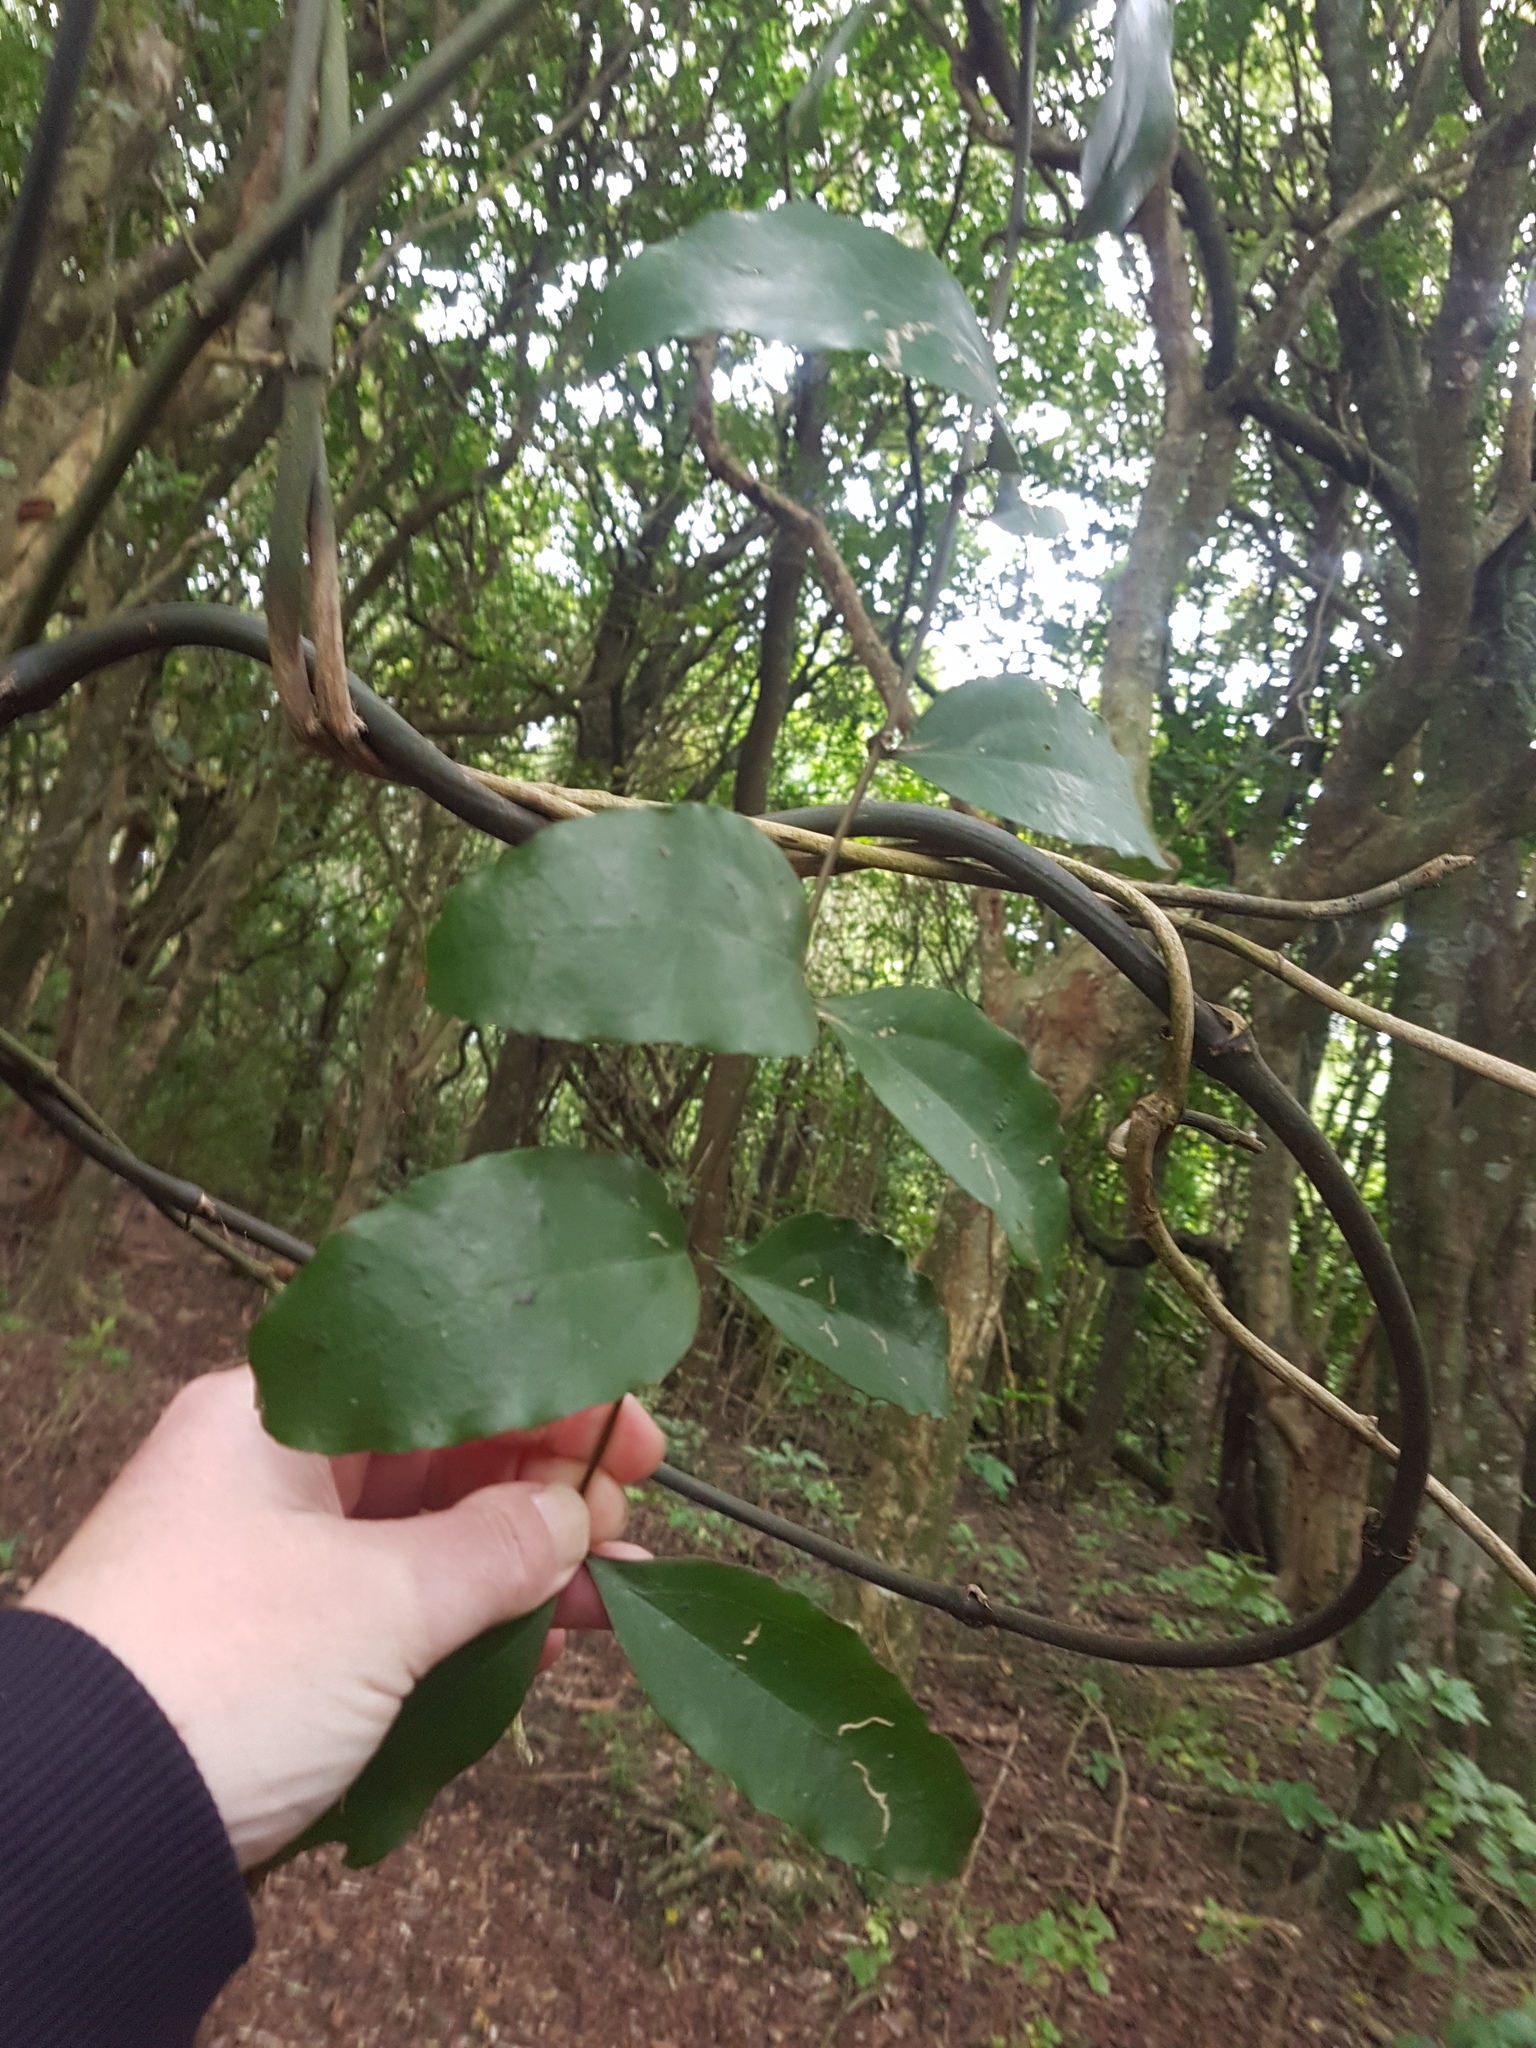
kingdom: Plantae
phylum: Tracheophyta
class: Liliopsida
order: Liliales
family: Ripogonaceae
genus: Ripogonum
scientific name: Ripogonum scandens
